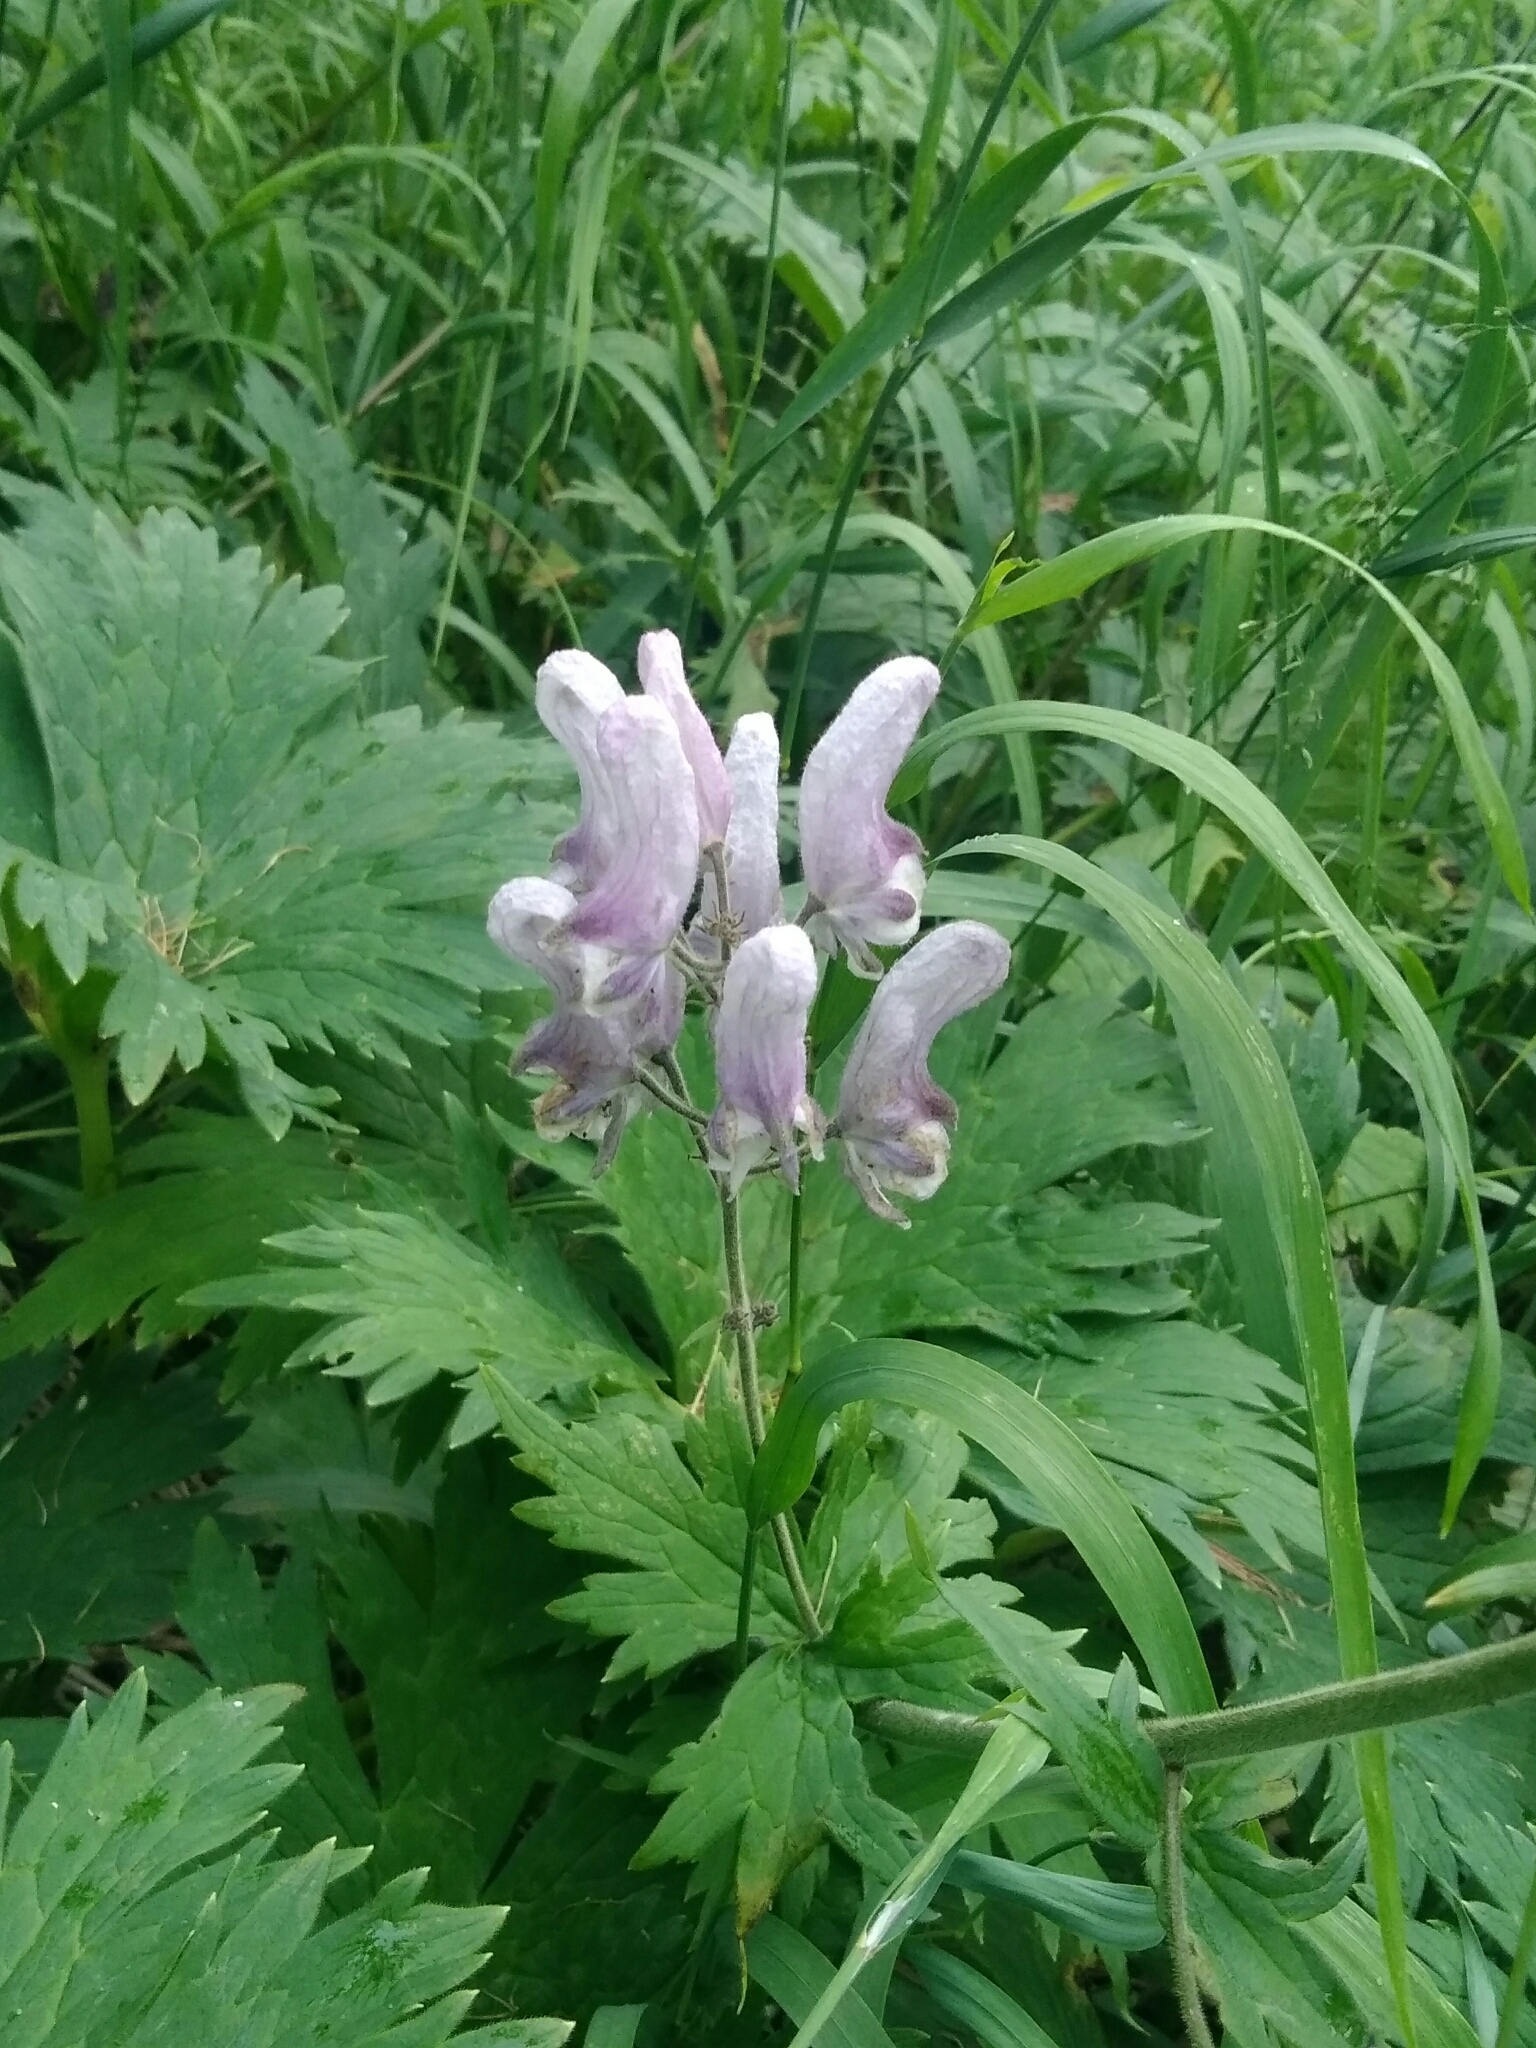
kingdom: Plantae
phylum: Tracheophyta
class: Magnoliopsida
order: Ranunculales
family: Ranunculaceae
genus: Aconitum
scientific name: Aconitum septentrionale
